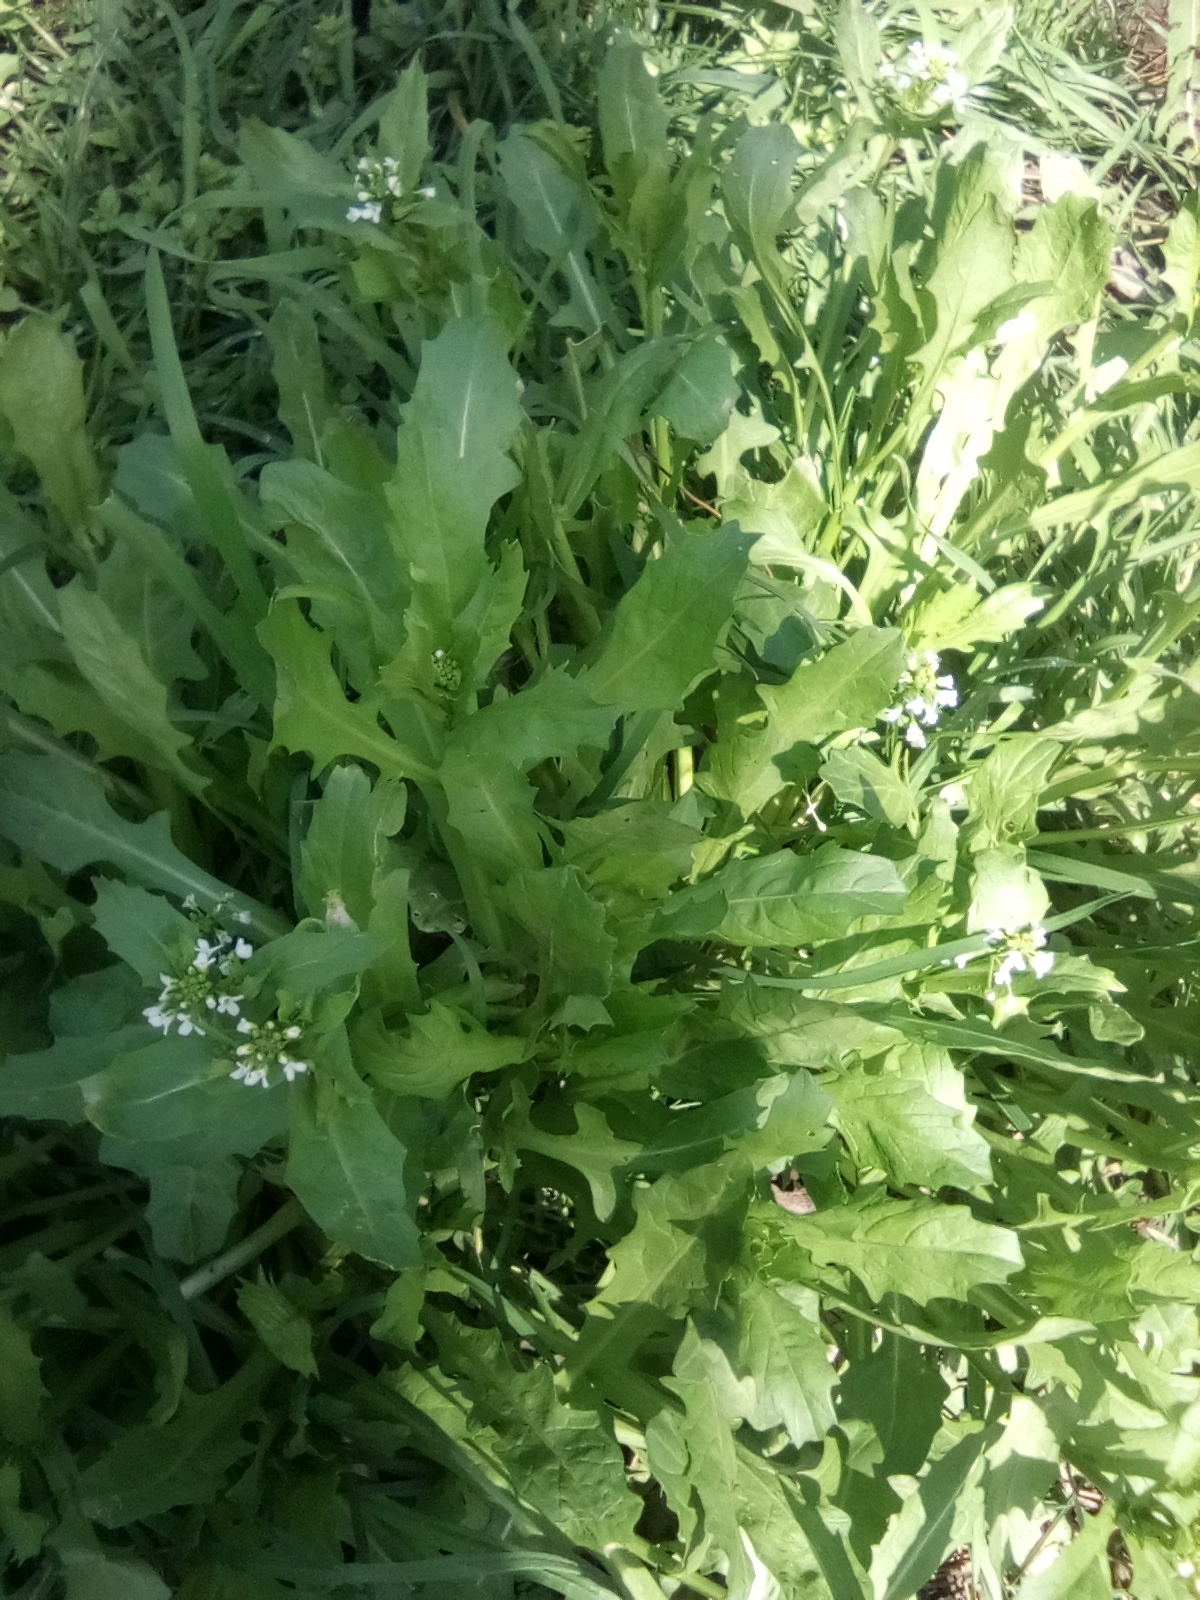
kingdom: Plantae
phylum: Tracheophyta
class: Magnoliopsida
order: Brassicales
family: Brassicaceae
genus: Calepina
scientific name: Calepina irregularis
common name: White ballmustard
